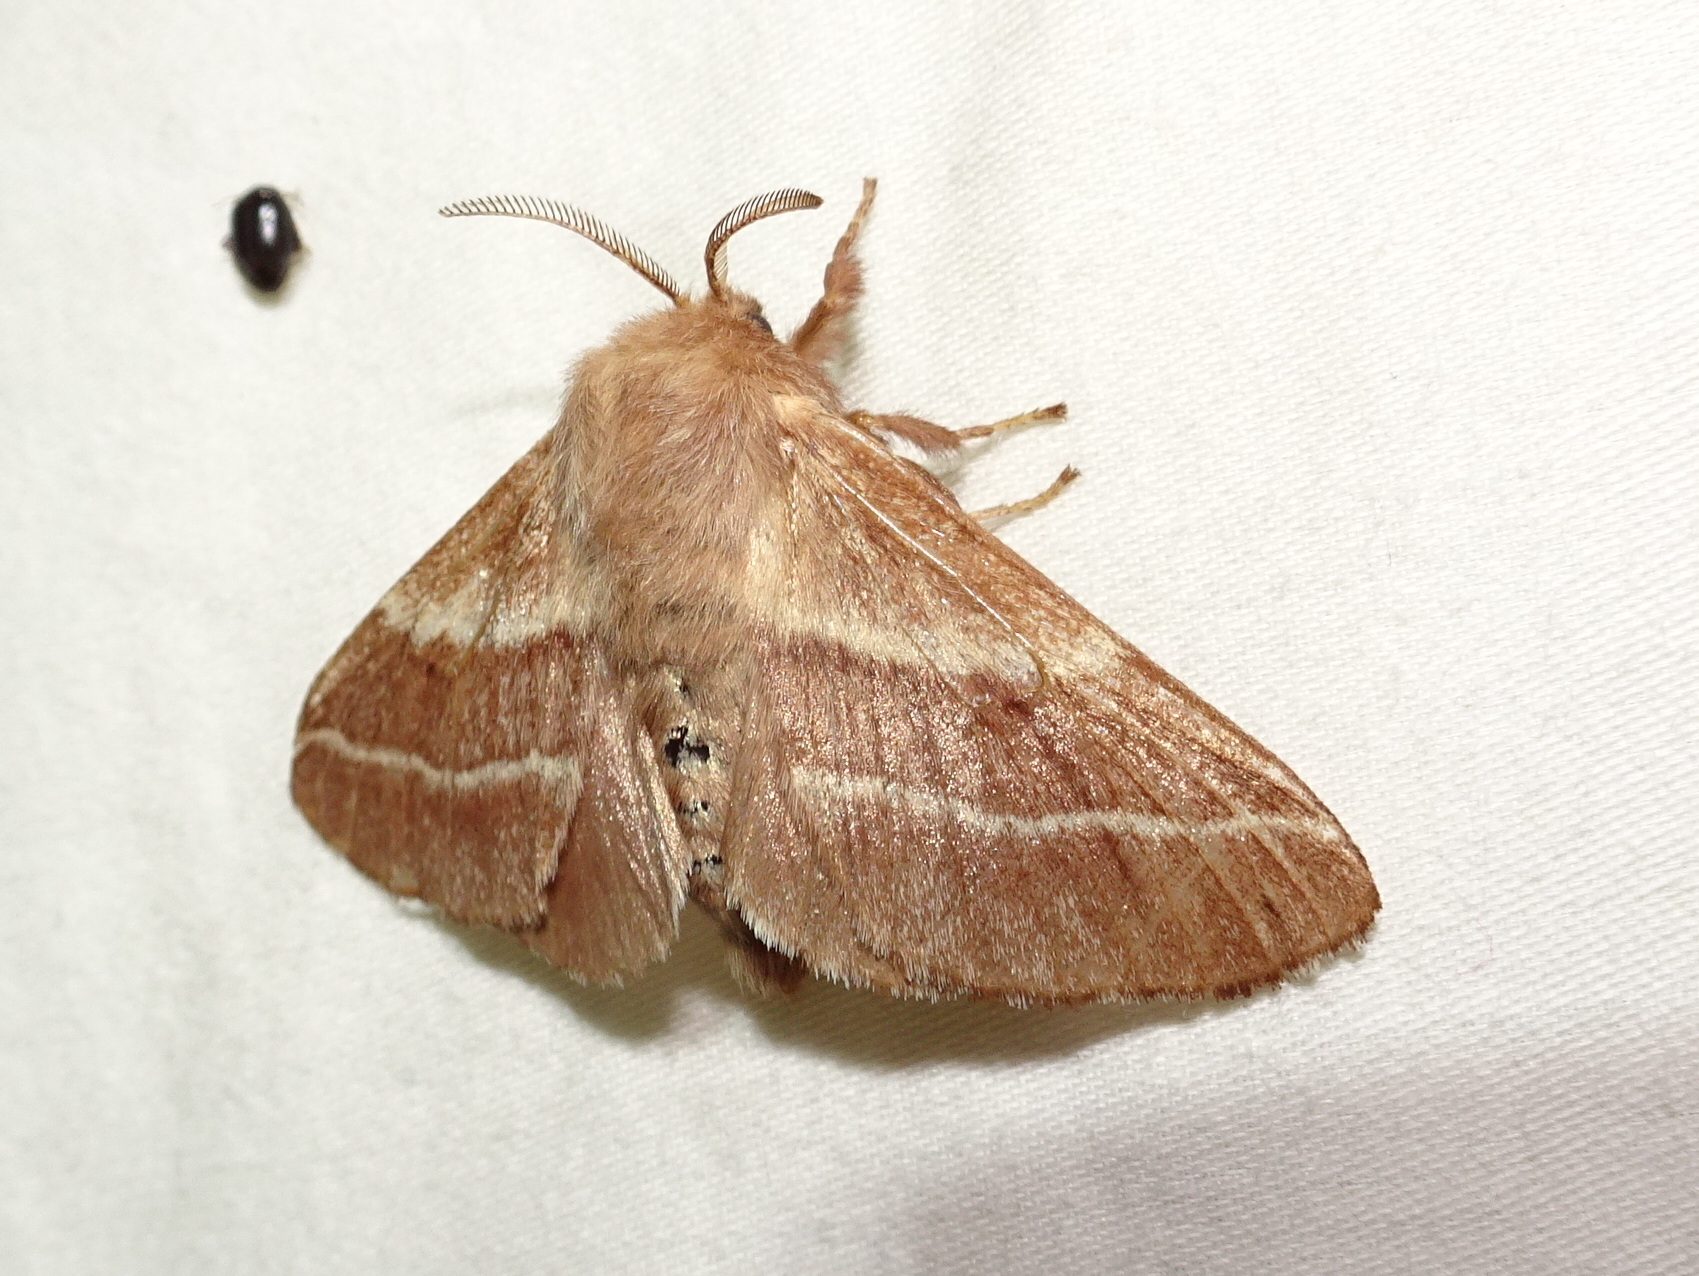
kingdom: Animalia
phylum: Arthropoda
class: Insecta
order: Lepidoptera
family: Lasiocampidae
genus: Malacosoma
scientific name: Malacosoma americana
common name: Eastern tent caterpillar moth
